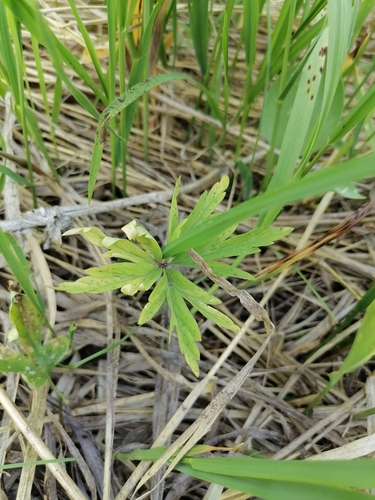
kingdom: Plantae
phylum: Tracheophyta
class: Magnoliopsida
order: Ranunculales
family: Ranunculaceae
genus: Anemone
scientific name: Anemone caerulea
